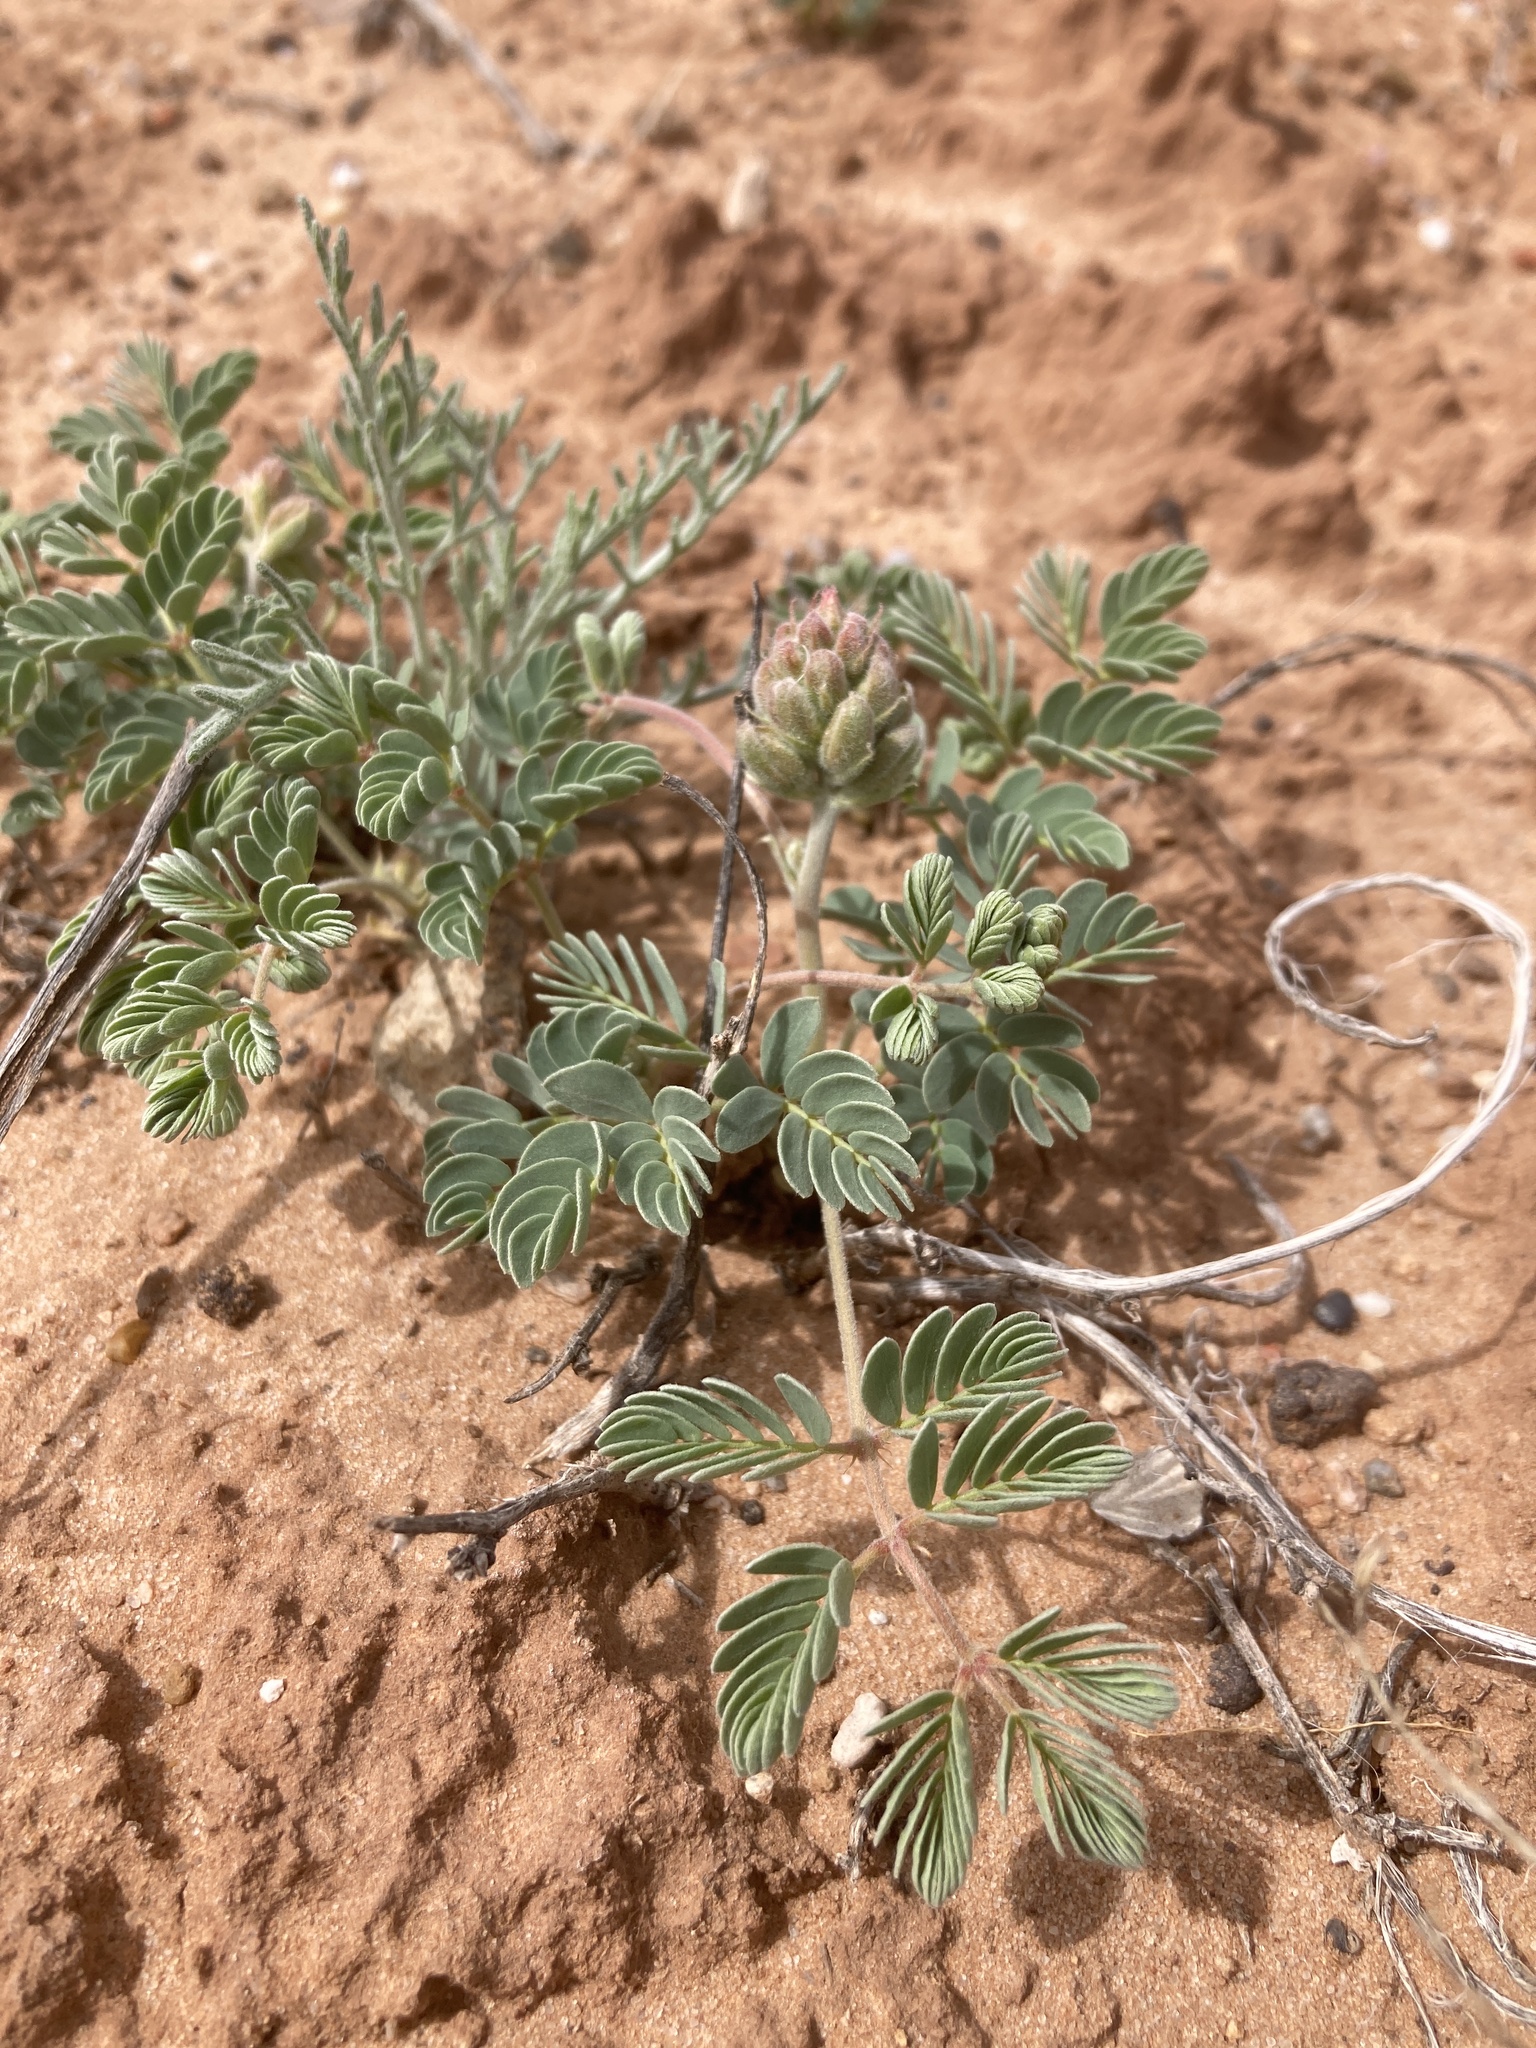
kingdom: Plantae
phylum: Tracheophyta
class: Magnoliopsida
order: Fabales
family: Fabaceae
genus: Hoffmannseggia
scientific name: Hoffmannseggia repens
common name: Creeping rush-pea
